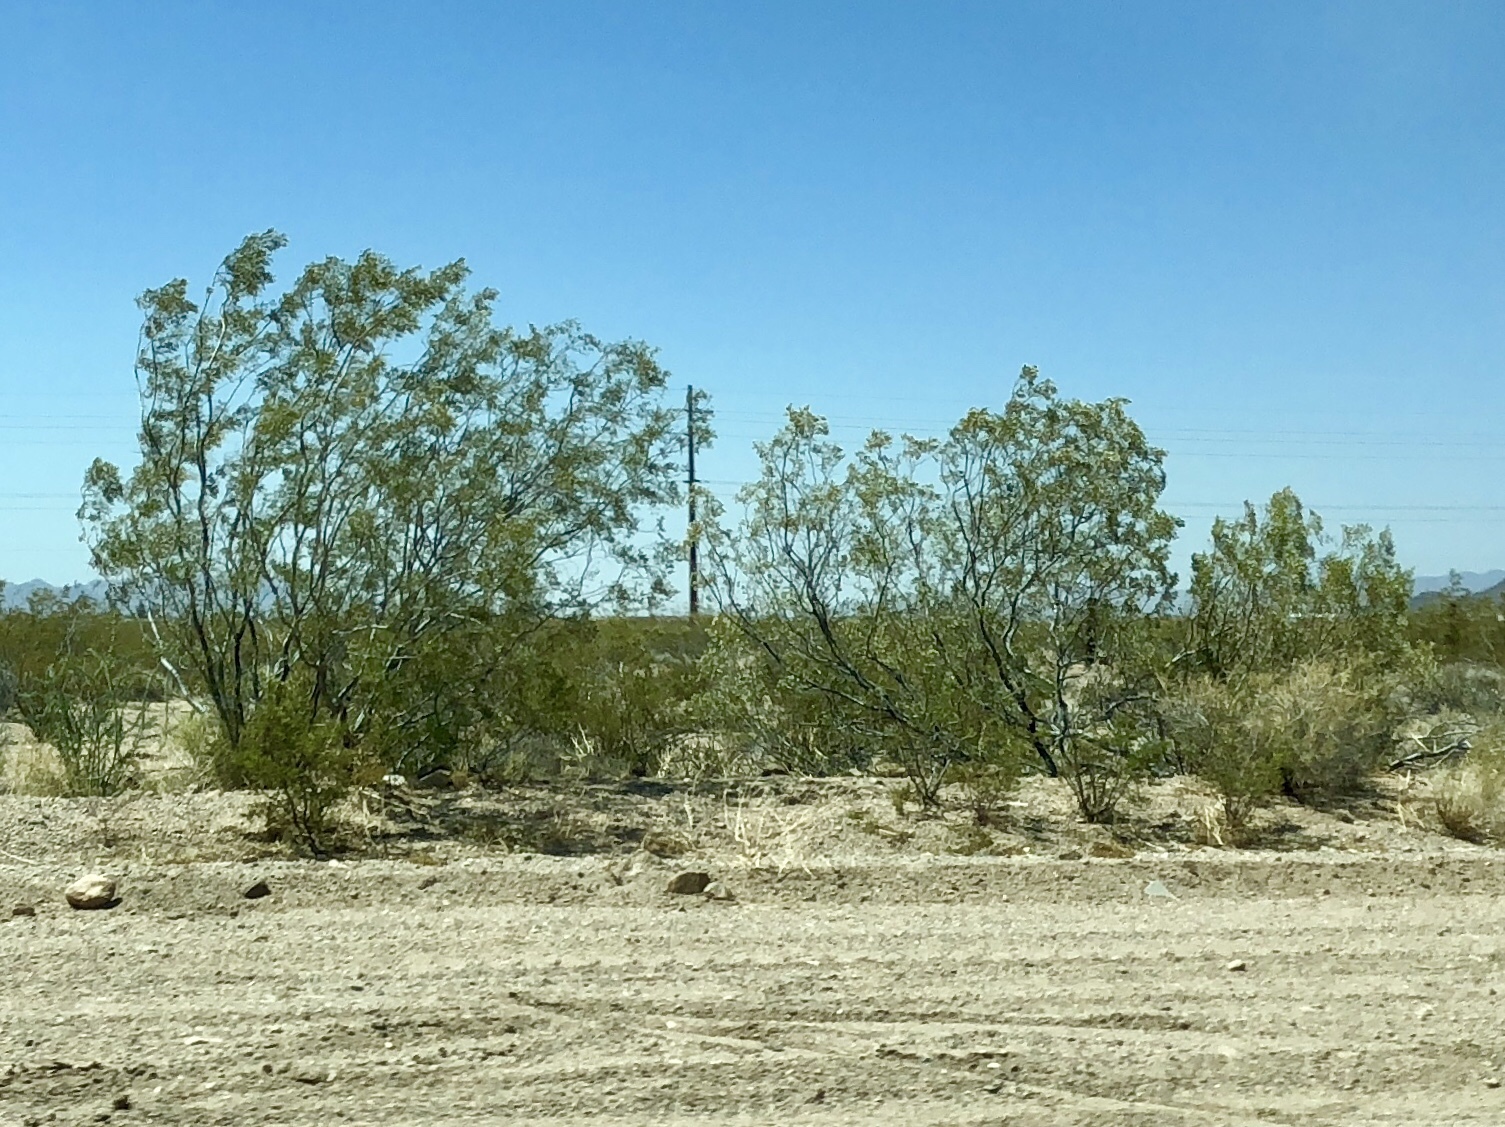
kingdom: Plantae
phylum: Tracheophyta
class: Magnoliopsida
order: Zygophyllales
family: Zygophyllaceae
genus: Larrea
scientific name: Larrea tridentata
